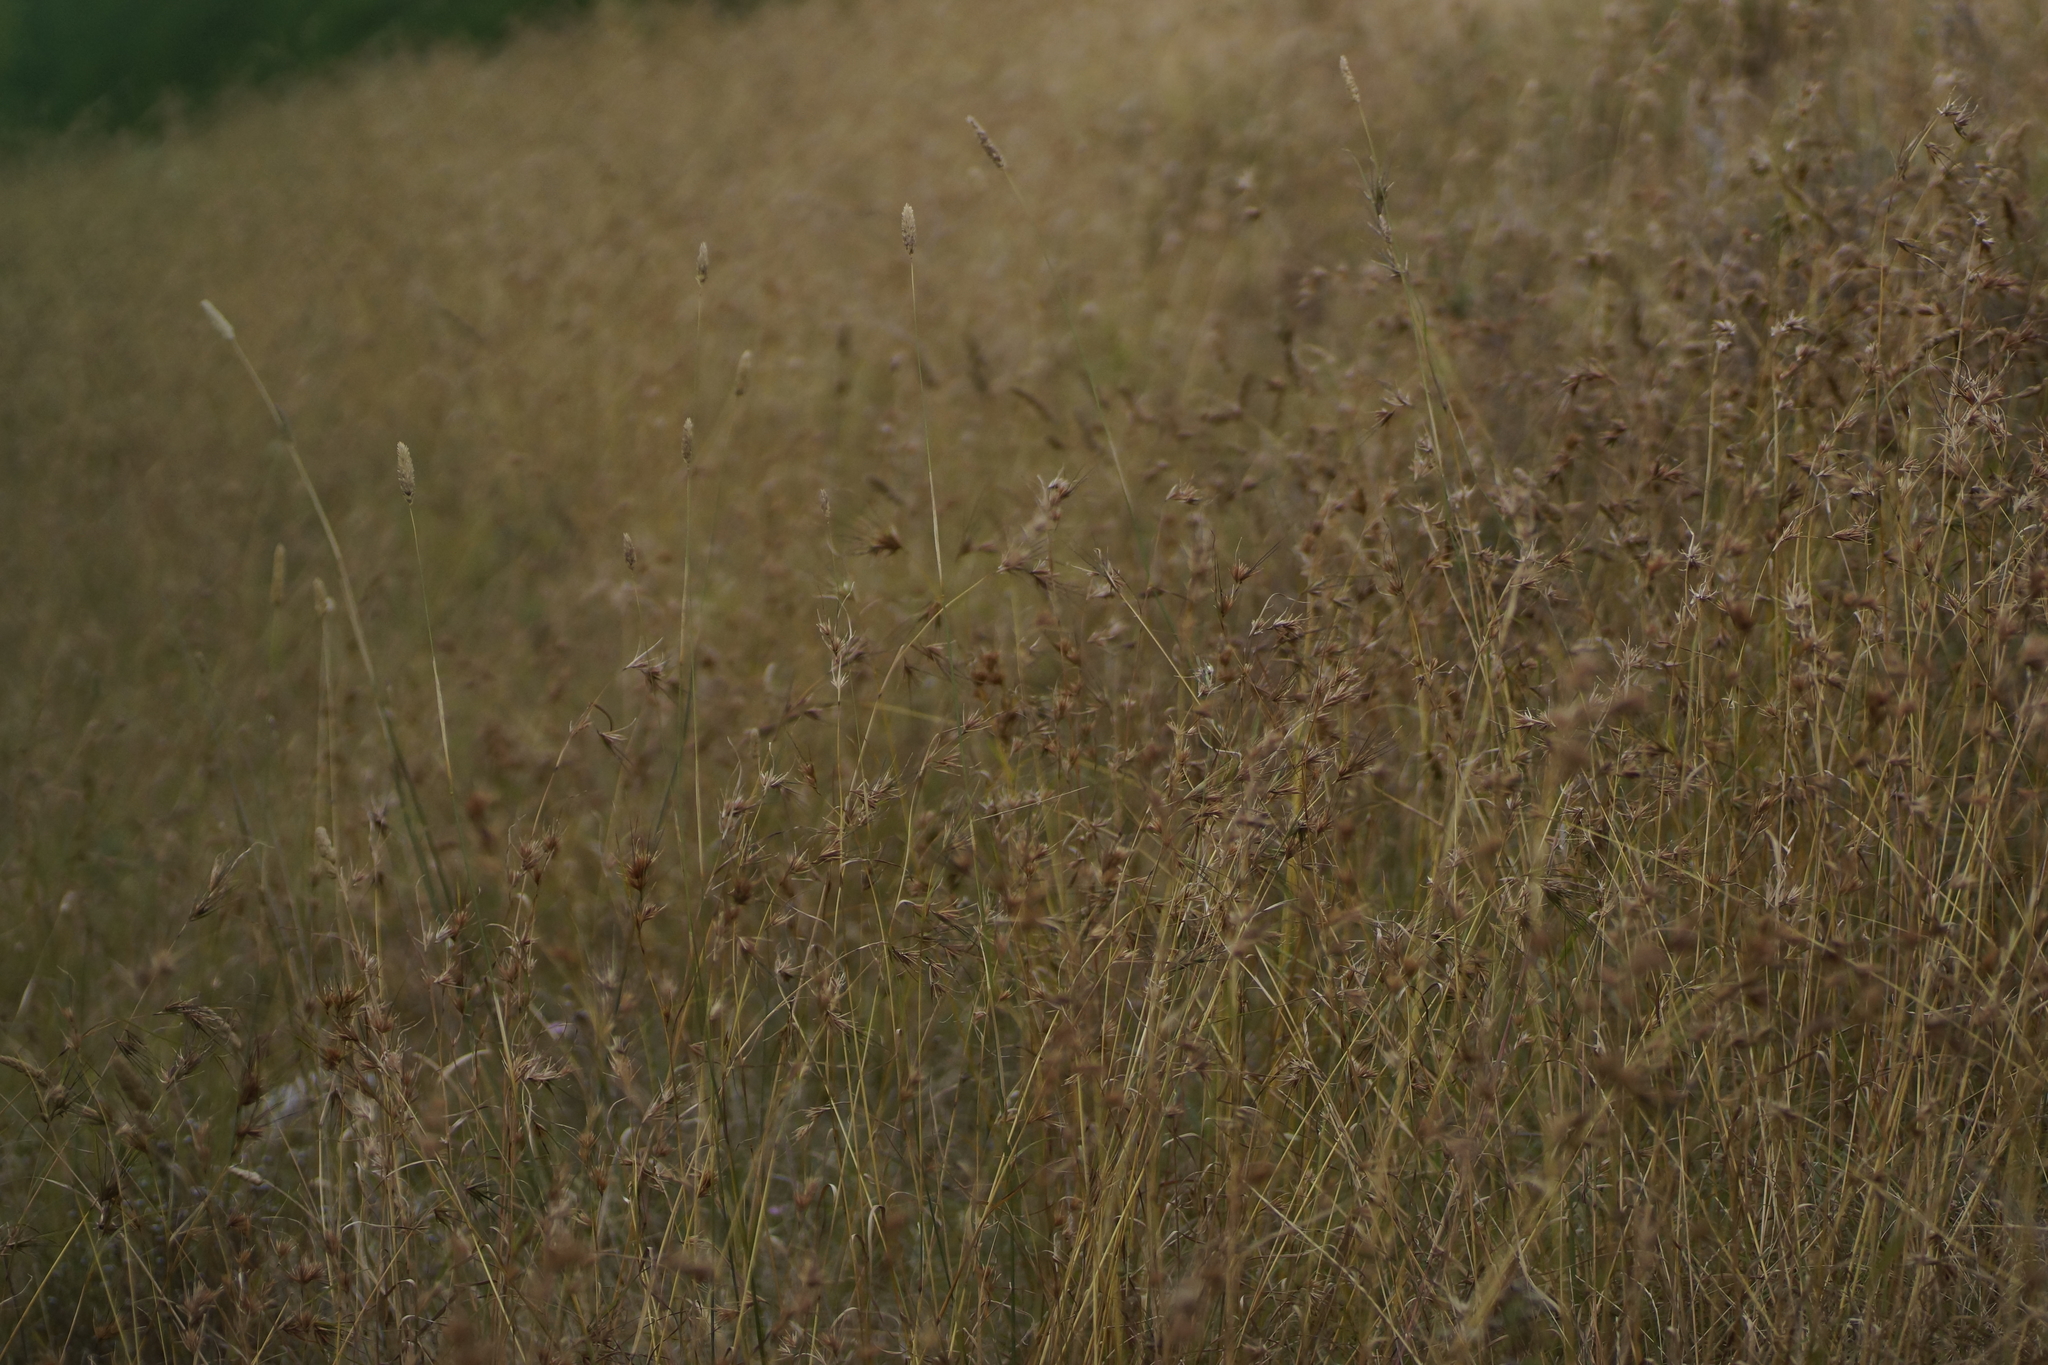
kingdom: Plantae
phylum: Tracheophyta
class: Liliopsida
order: Poales
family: Poaceae
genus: Themeda
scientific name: Themeda triandra
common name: Kangaroo grass
